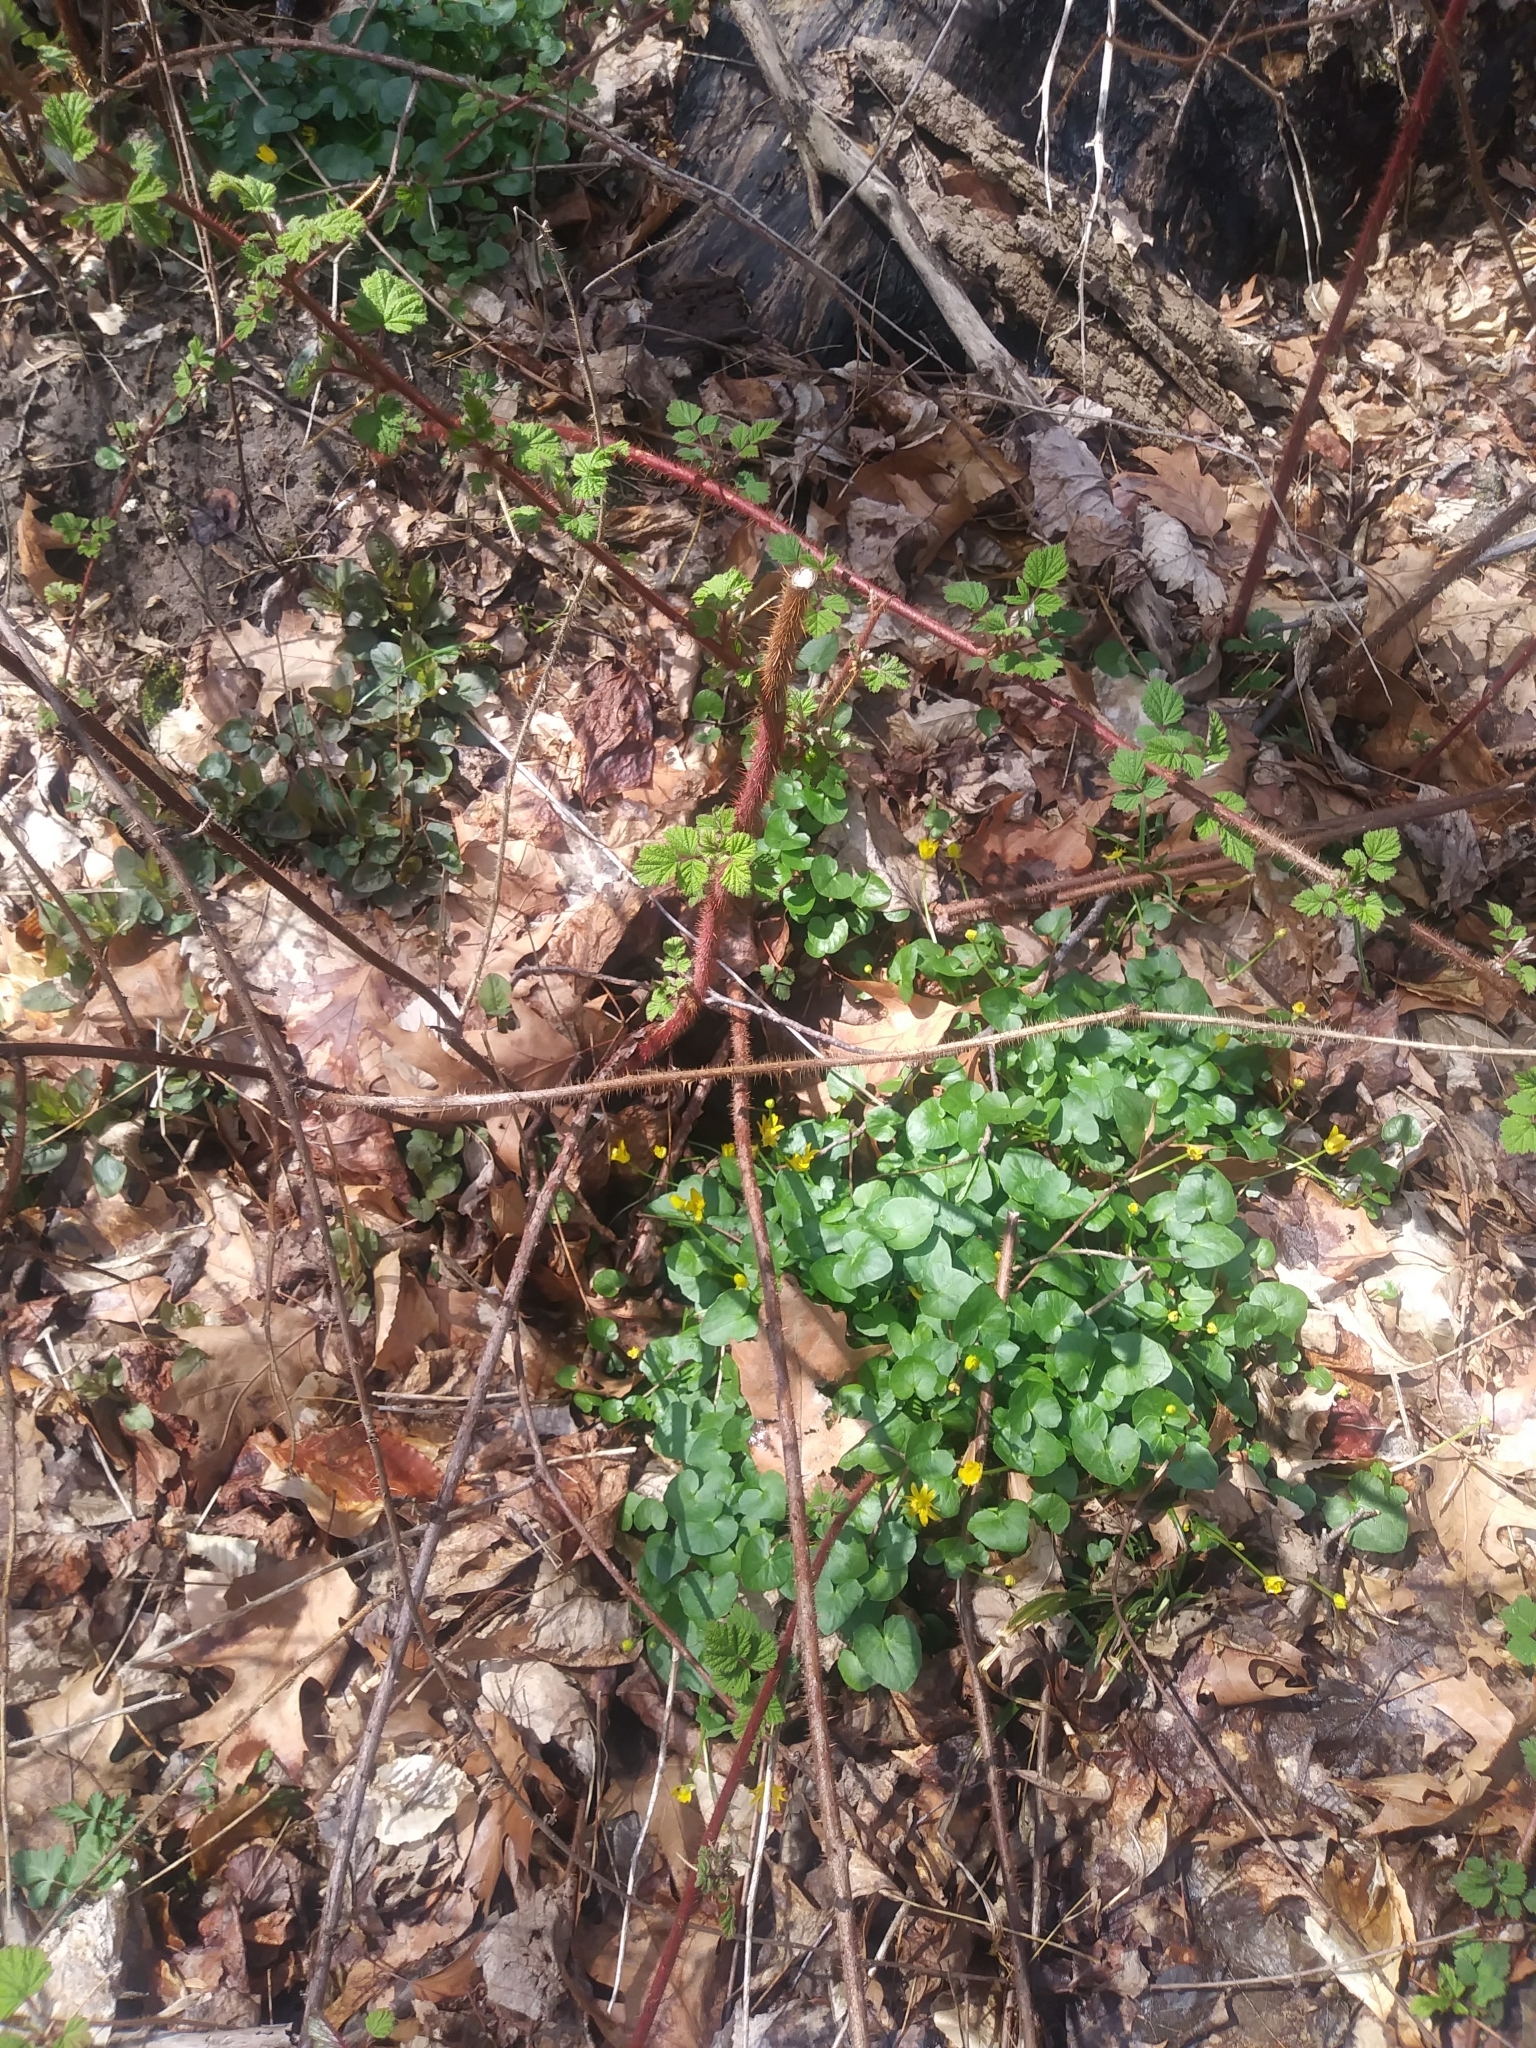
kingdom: Plantae
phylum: Tracheophyta
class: Magnoliopsida
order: Rosales
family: Rosaceae
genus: Rubus
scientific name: Rubus phoenicolasius
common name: Japanese wineberry
